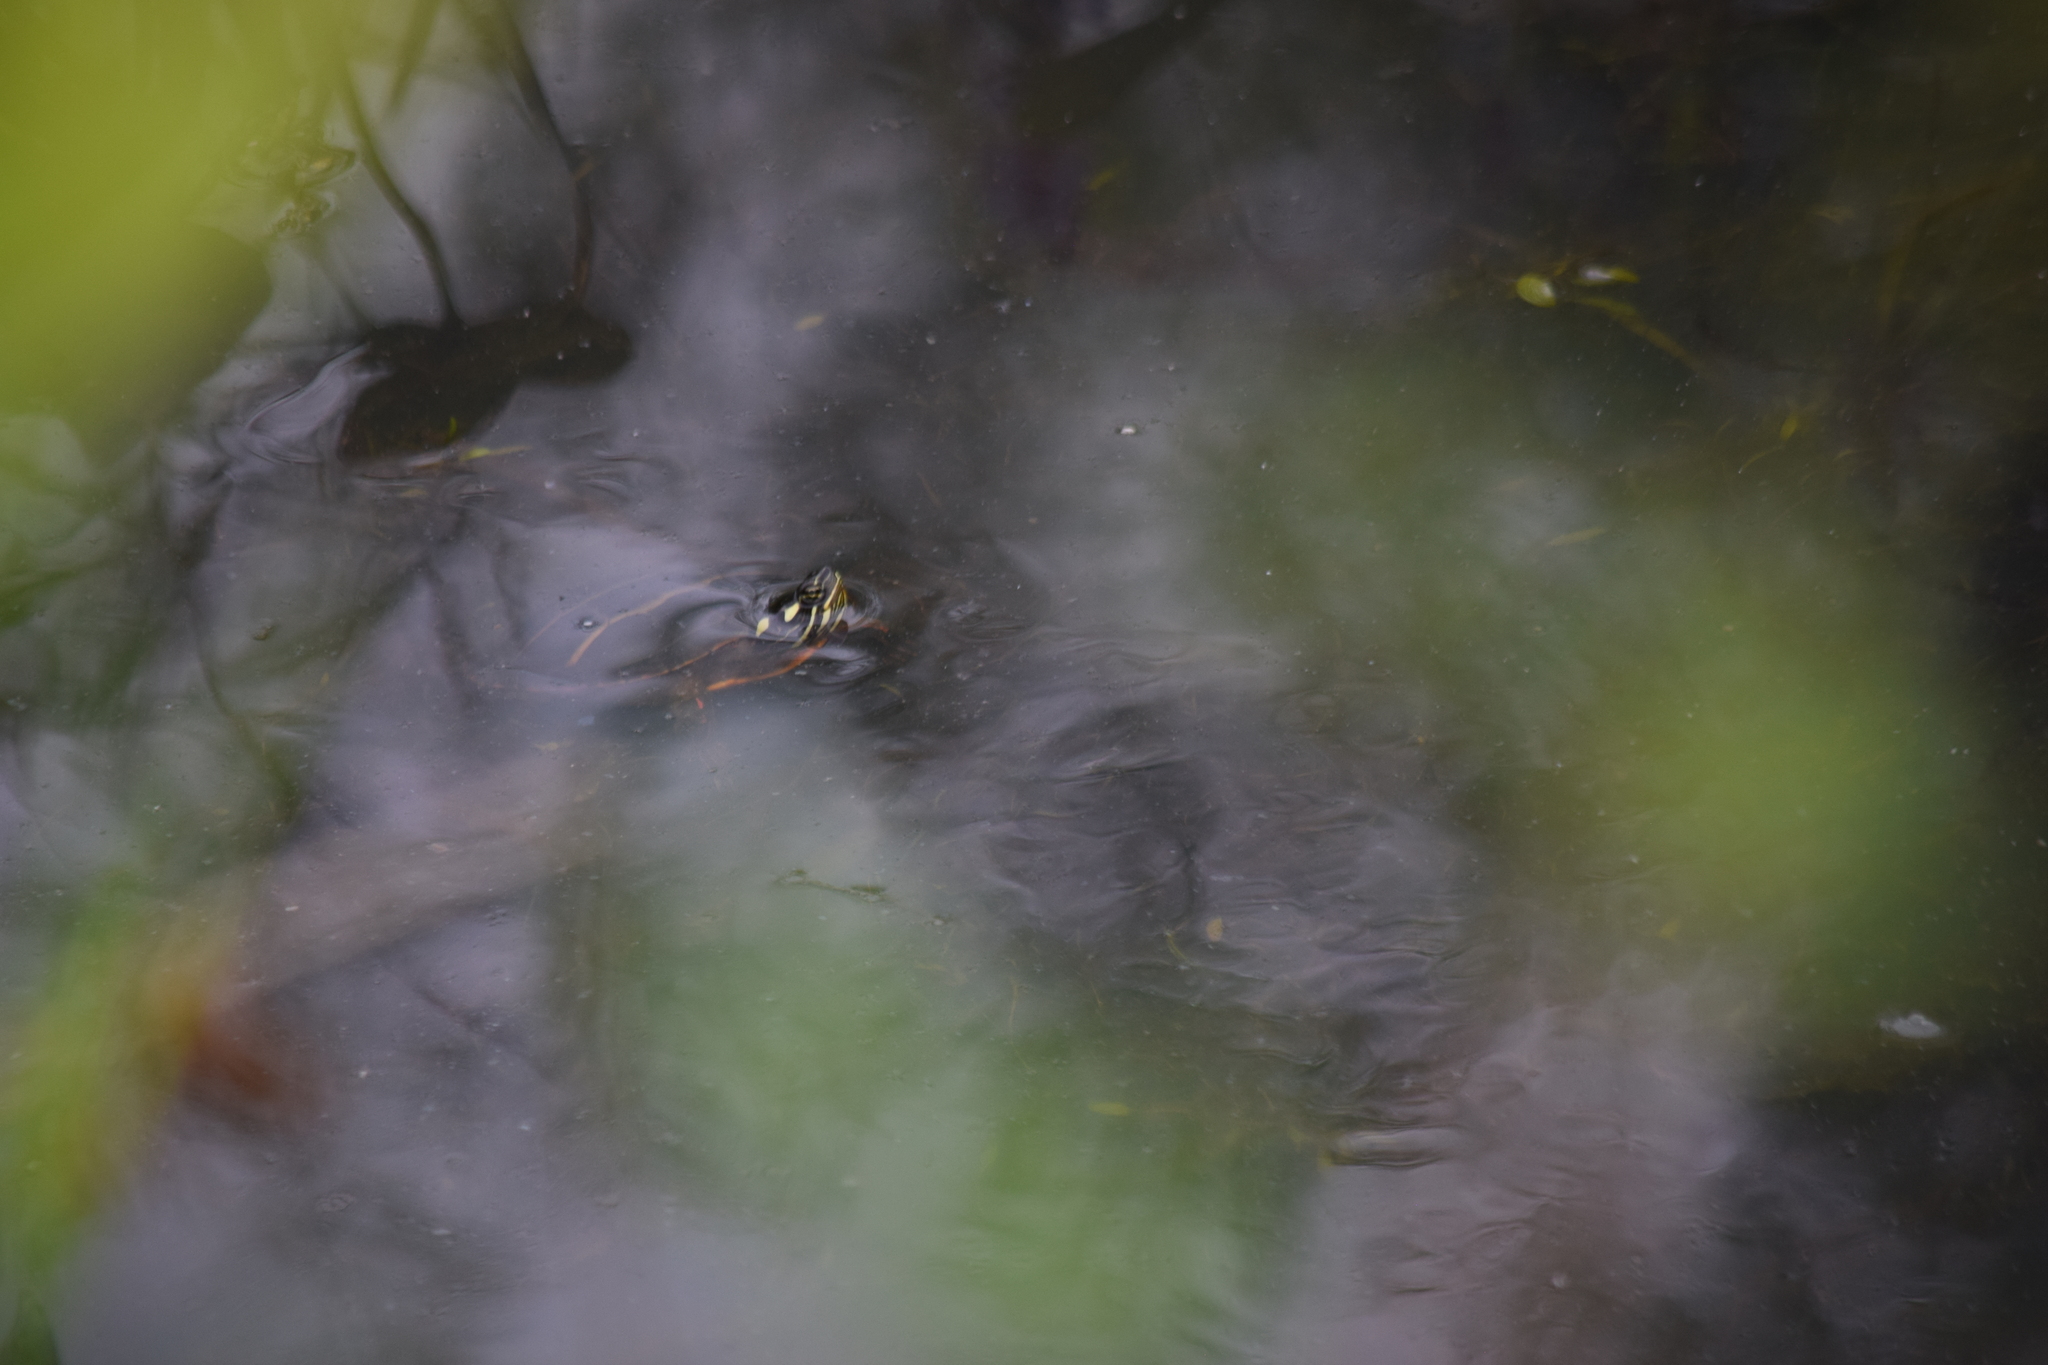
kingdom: Animalia
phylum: Chordata
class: Testudines
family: Emydidae
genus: Chrysemys
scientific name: Chrysemys picta
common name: Painted turtle
